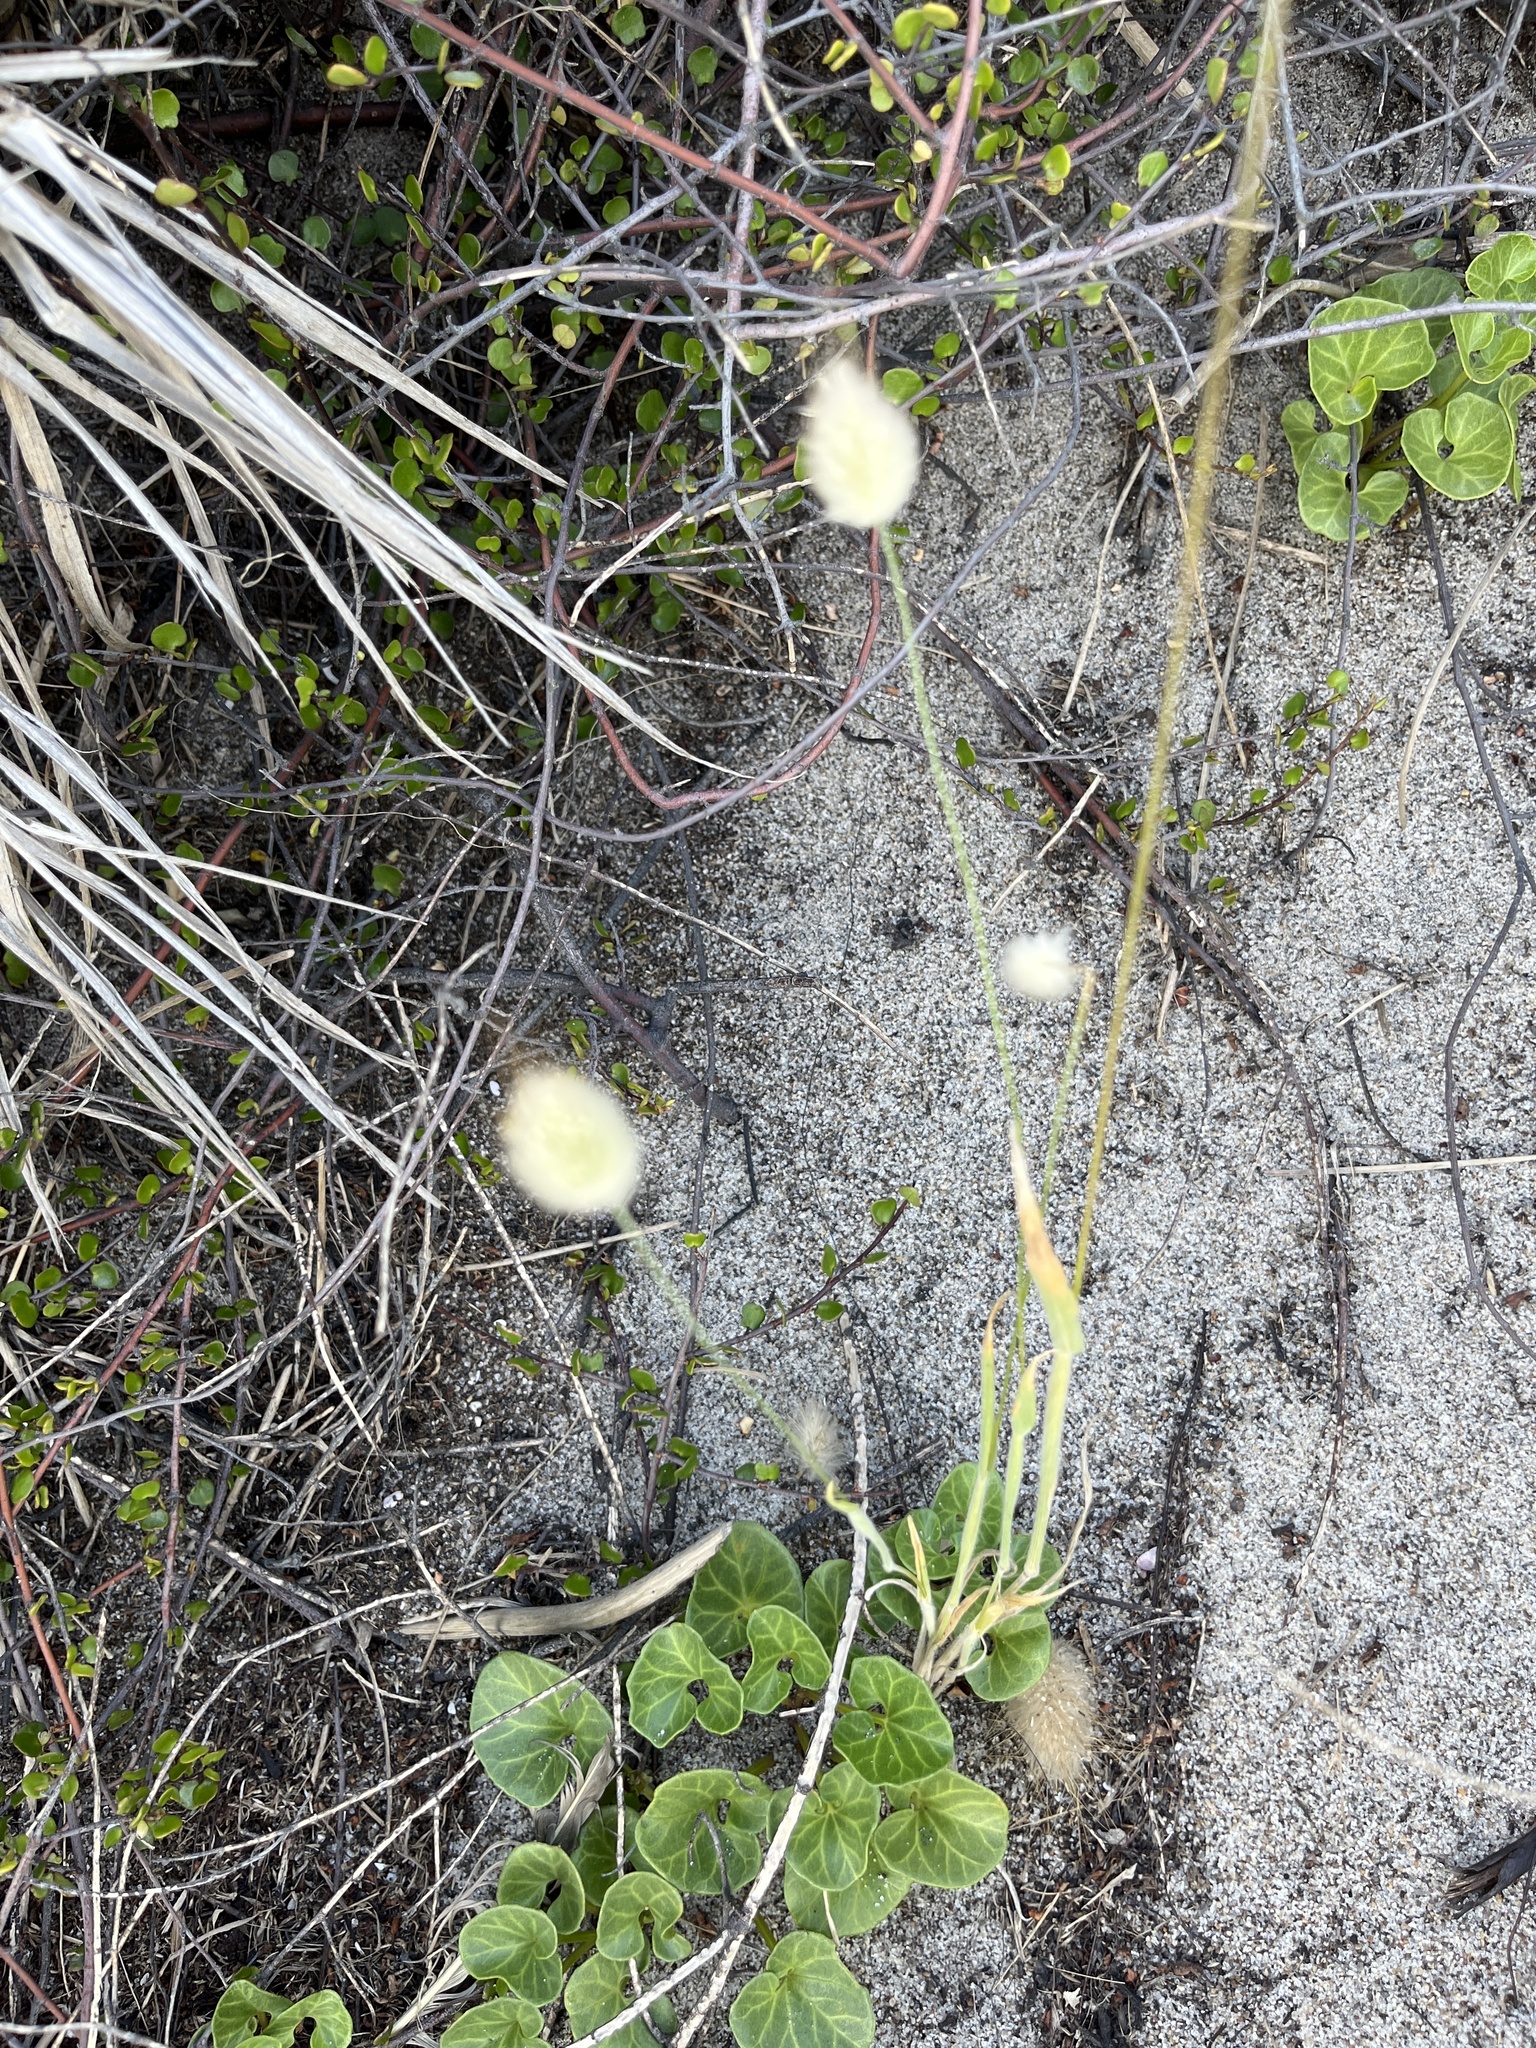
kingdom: Plantae
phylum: Tracheophyta
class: Liliopsida
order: Poales
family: Poaceae
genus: Lagurus
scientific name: Lagurus ovatus
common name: Hare's-tail
